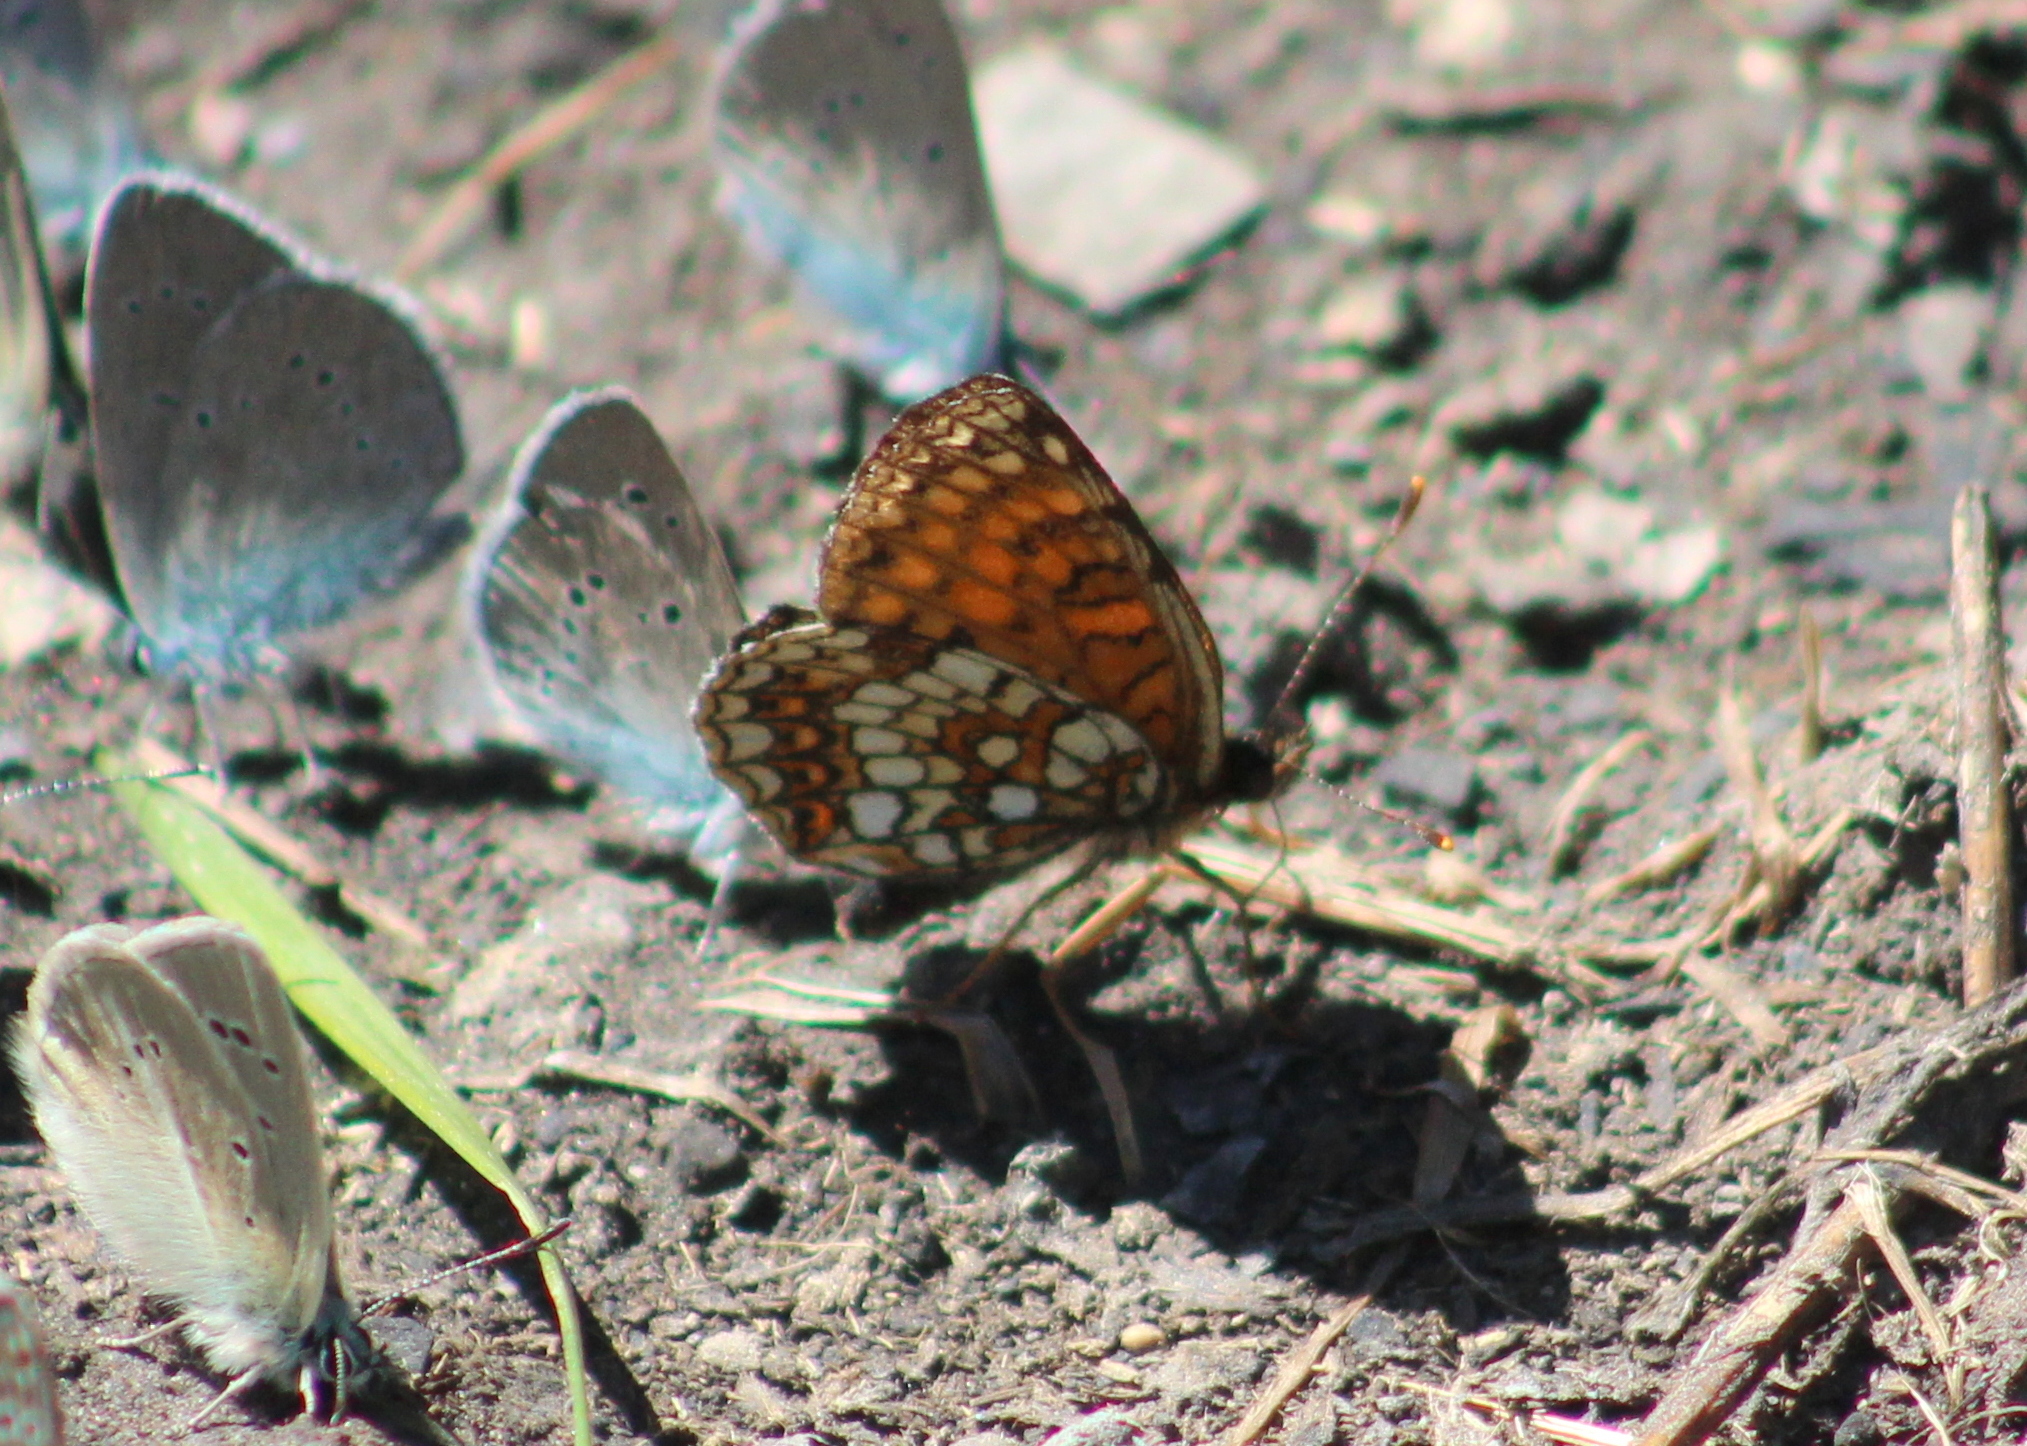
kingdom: Animalia
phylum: Arthropoda
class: Insecta
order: Lepidoptera
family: Nymphalidae
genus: Melitaea
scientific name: Melitaea diamina
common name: False heath fritillary
